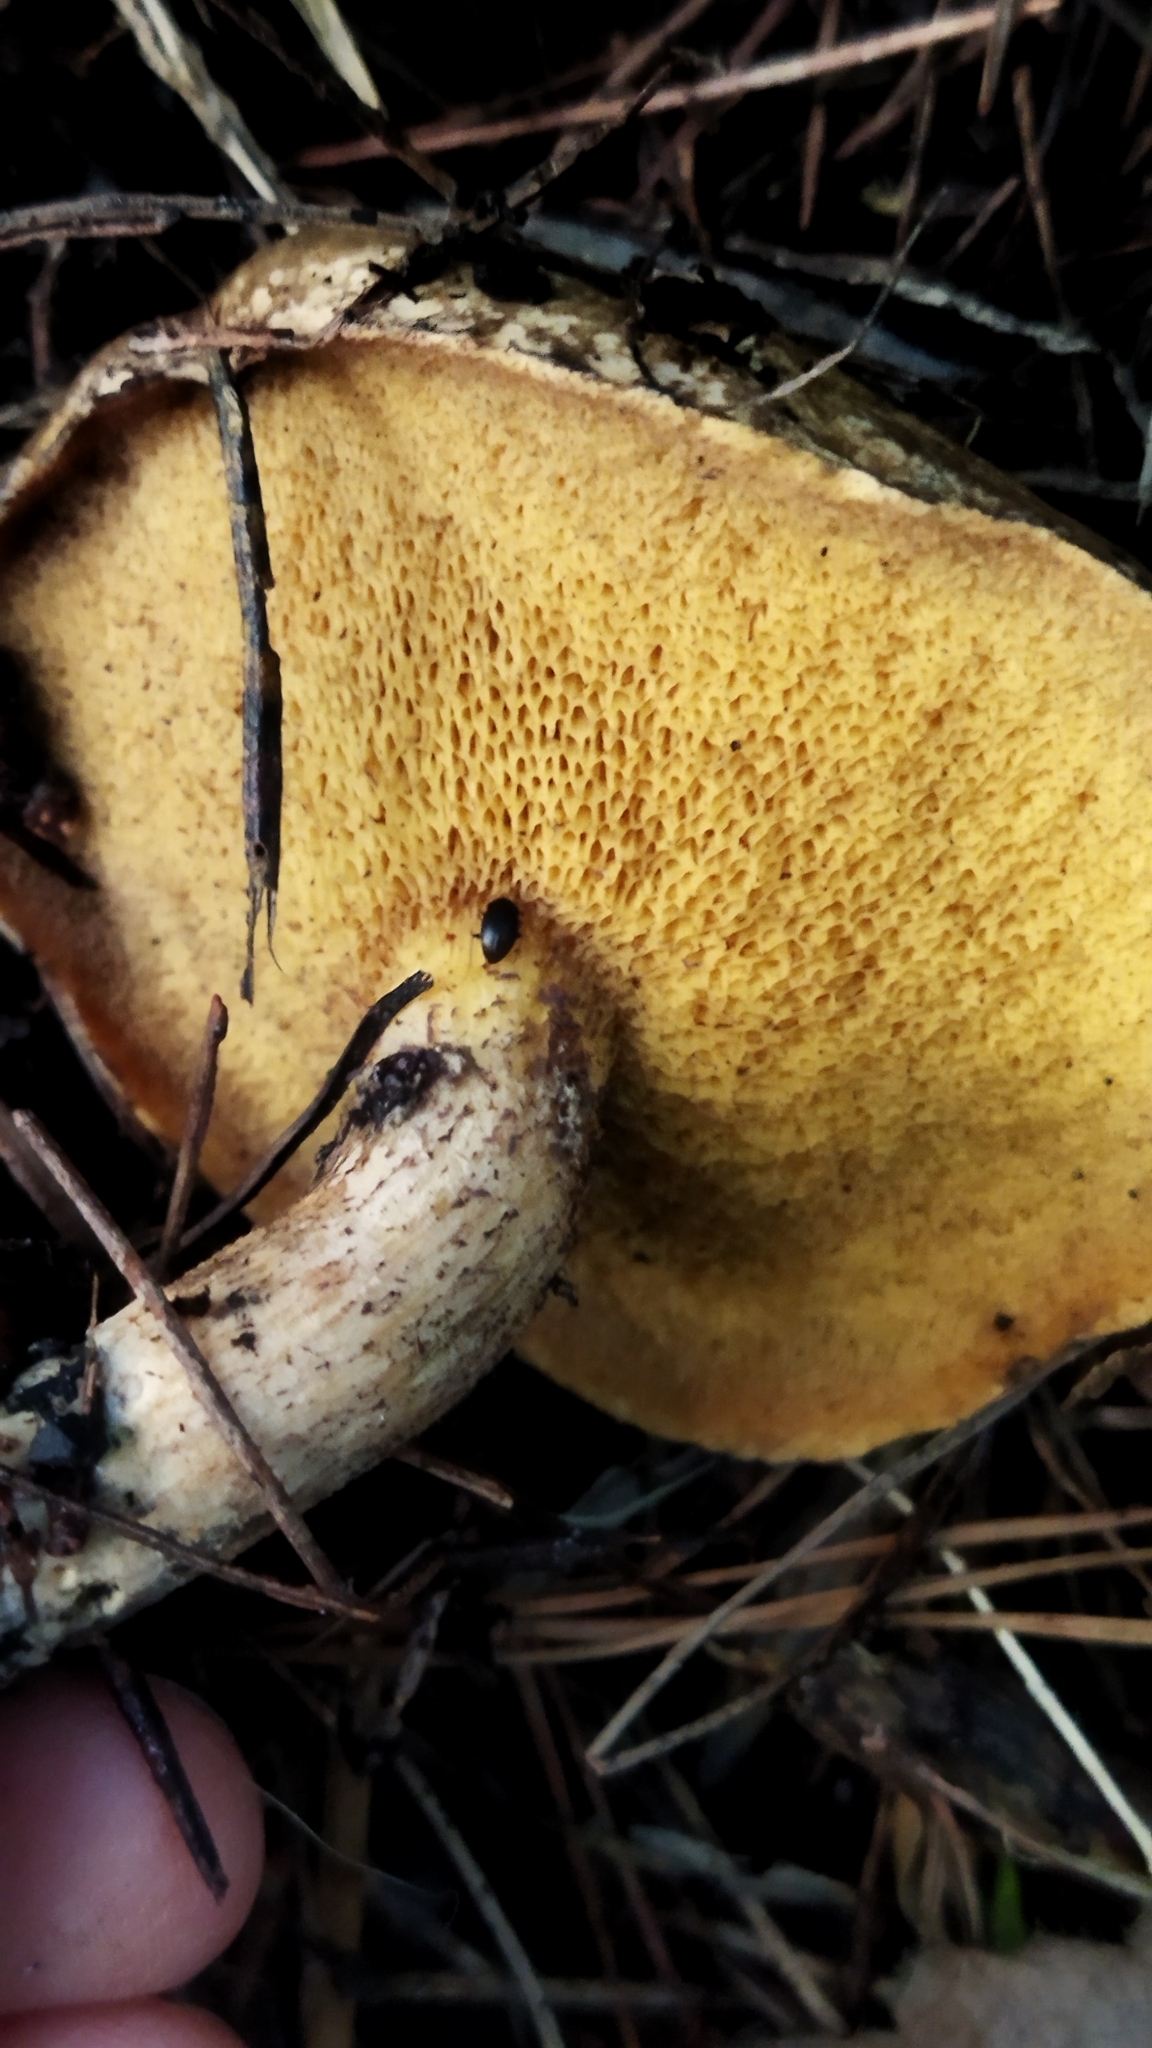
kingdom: Fungi
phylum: Basidiomycota
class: Agaricomycetes
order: Boletales
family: Suillaceae
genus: Suillus
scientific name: Suillus granulatus
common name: Weeping bolete
